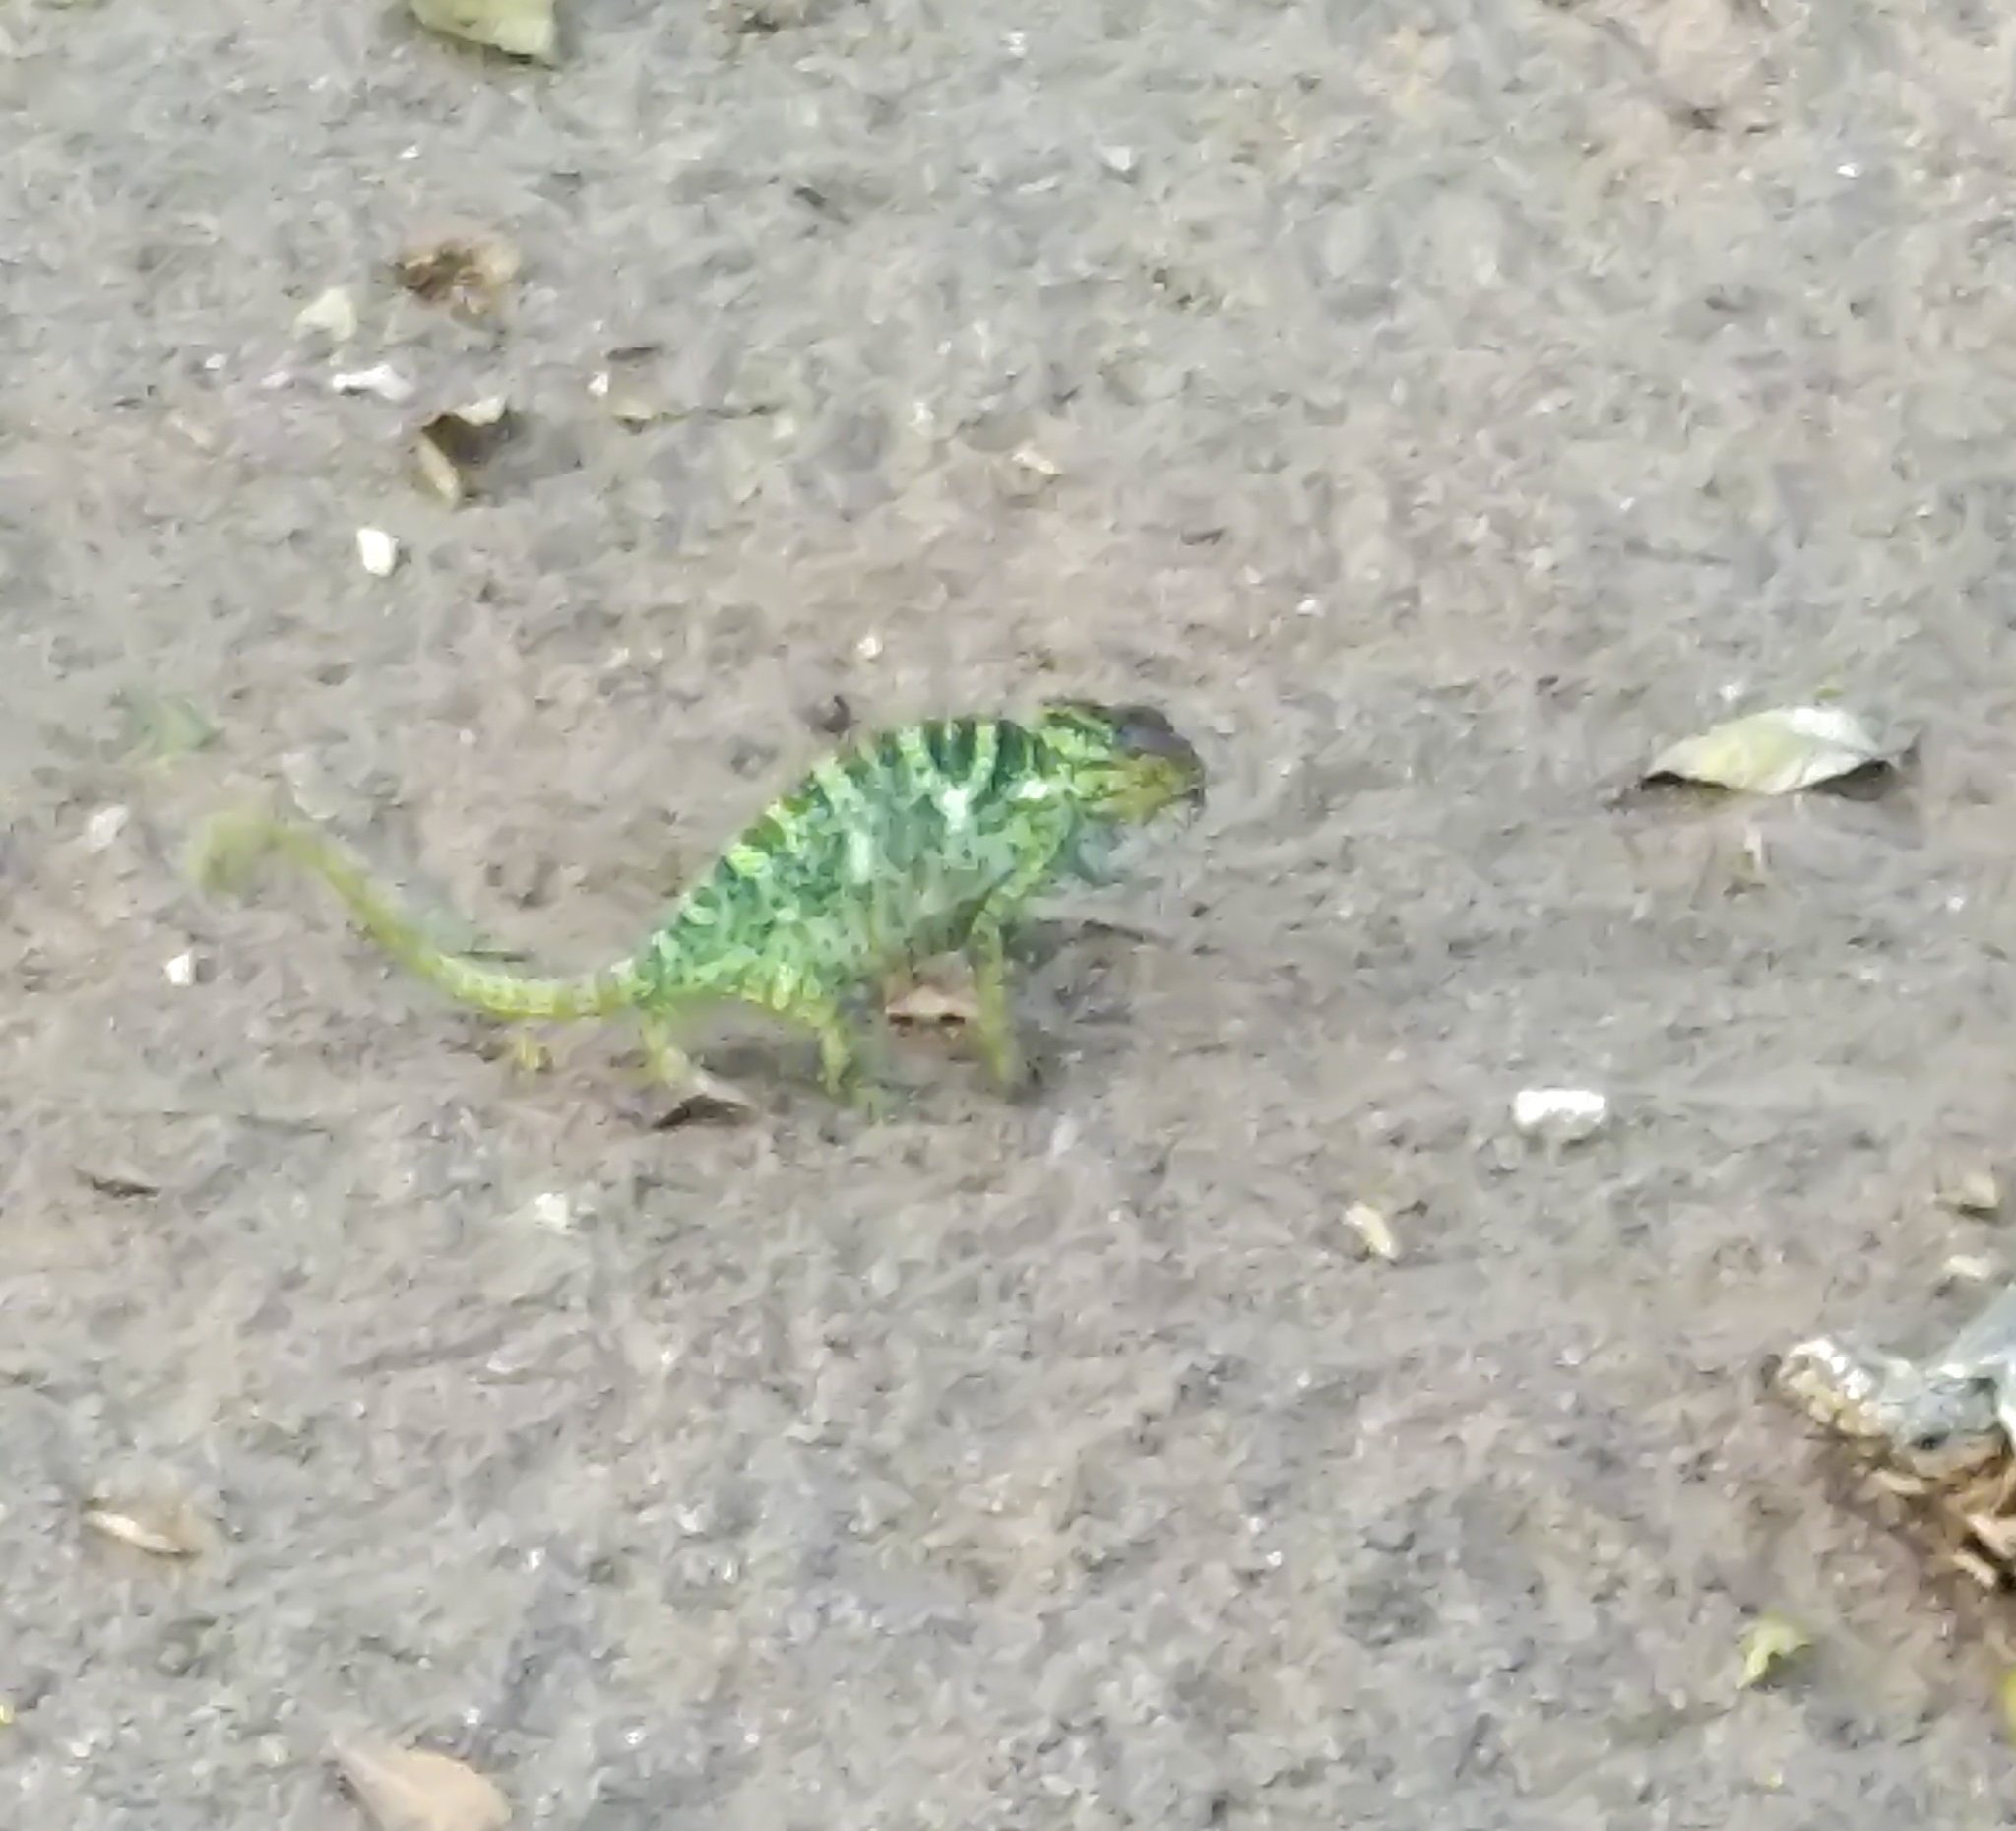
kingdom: Animalia
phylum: Chordata
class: Squamata
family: Chamaeleonidae
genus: Chamaeleo
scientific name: Chamaeleo zeylanicus
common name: Indian chameleon
